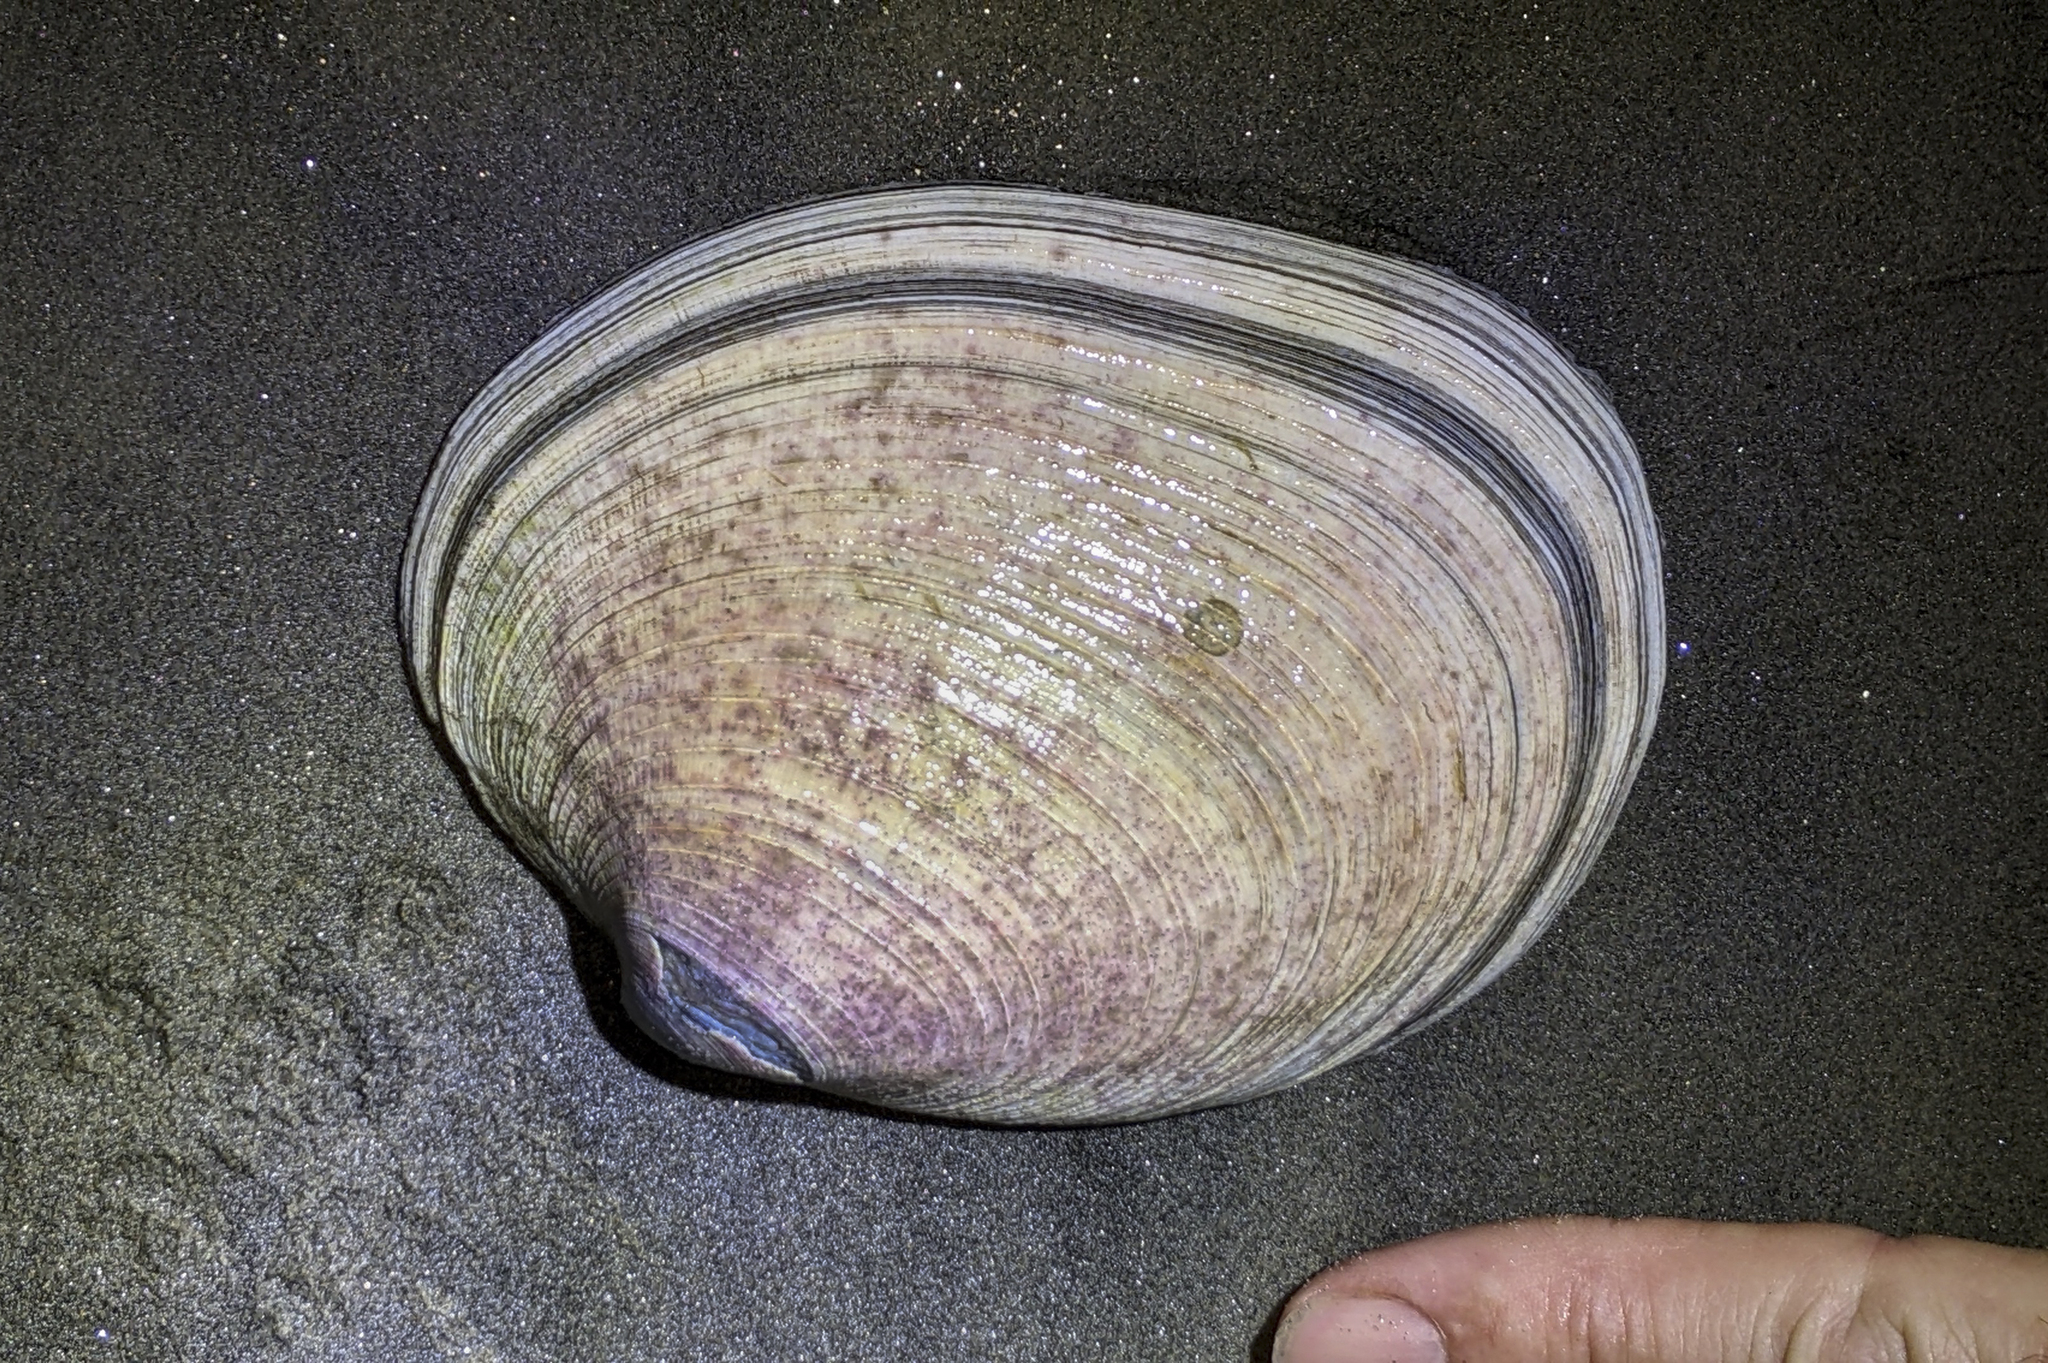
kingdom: Animalia
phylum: Mollusca
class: Bivalvia
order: Venerida
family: Veneridae
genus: Saxidomus
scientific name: Saxidomus nuttalli
